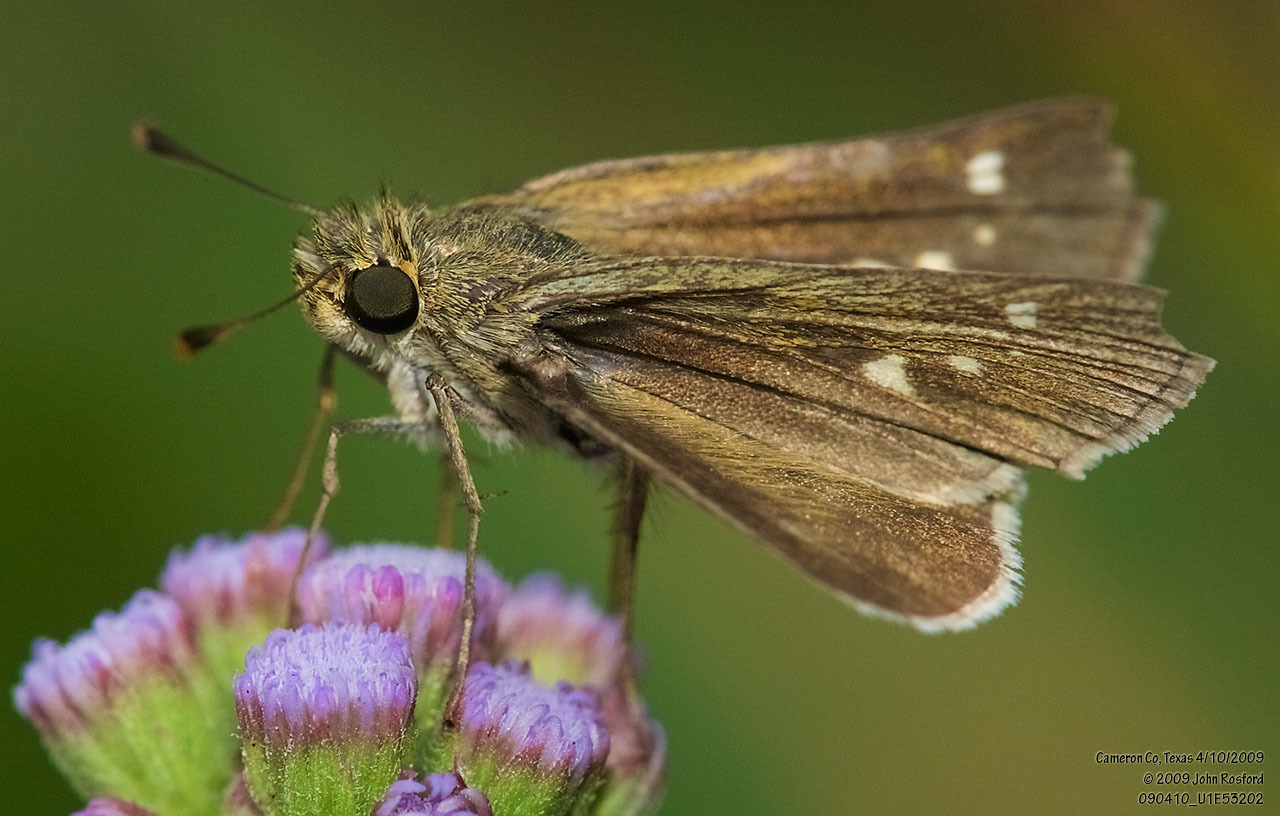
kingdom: Animalia
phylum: Arthropoda
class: Insecta
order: Lepidoptera
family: Hesperiidae
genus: Panoquina
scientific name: Panoquina panoquinoides
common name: Beach skipper
